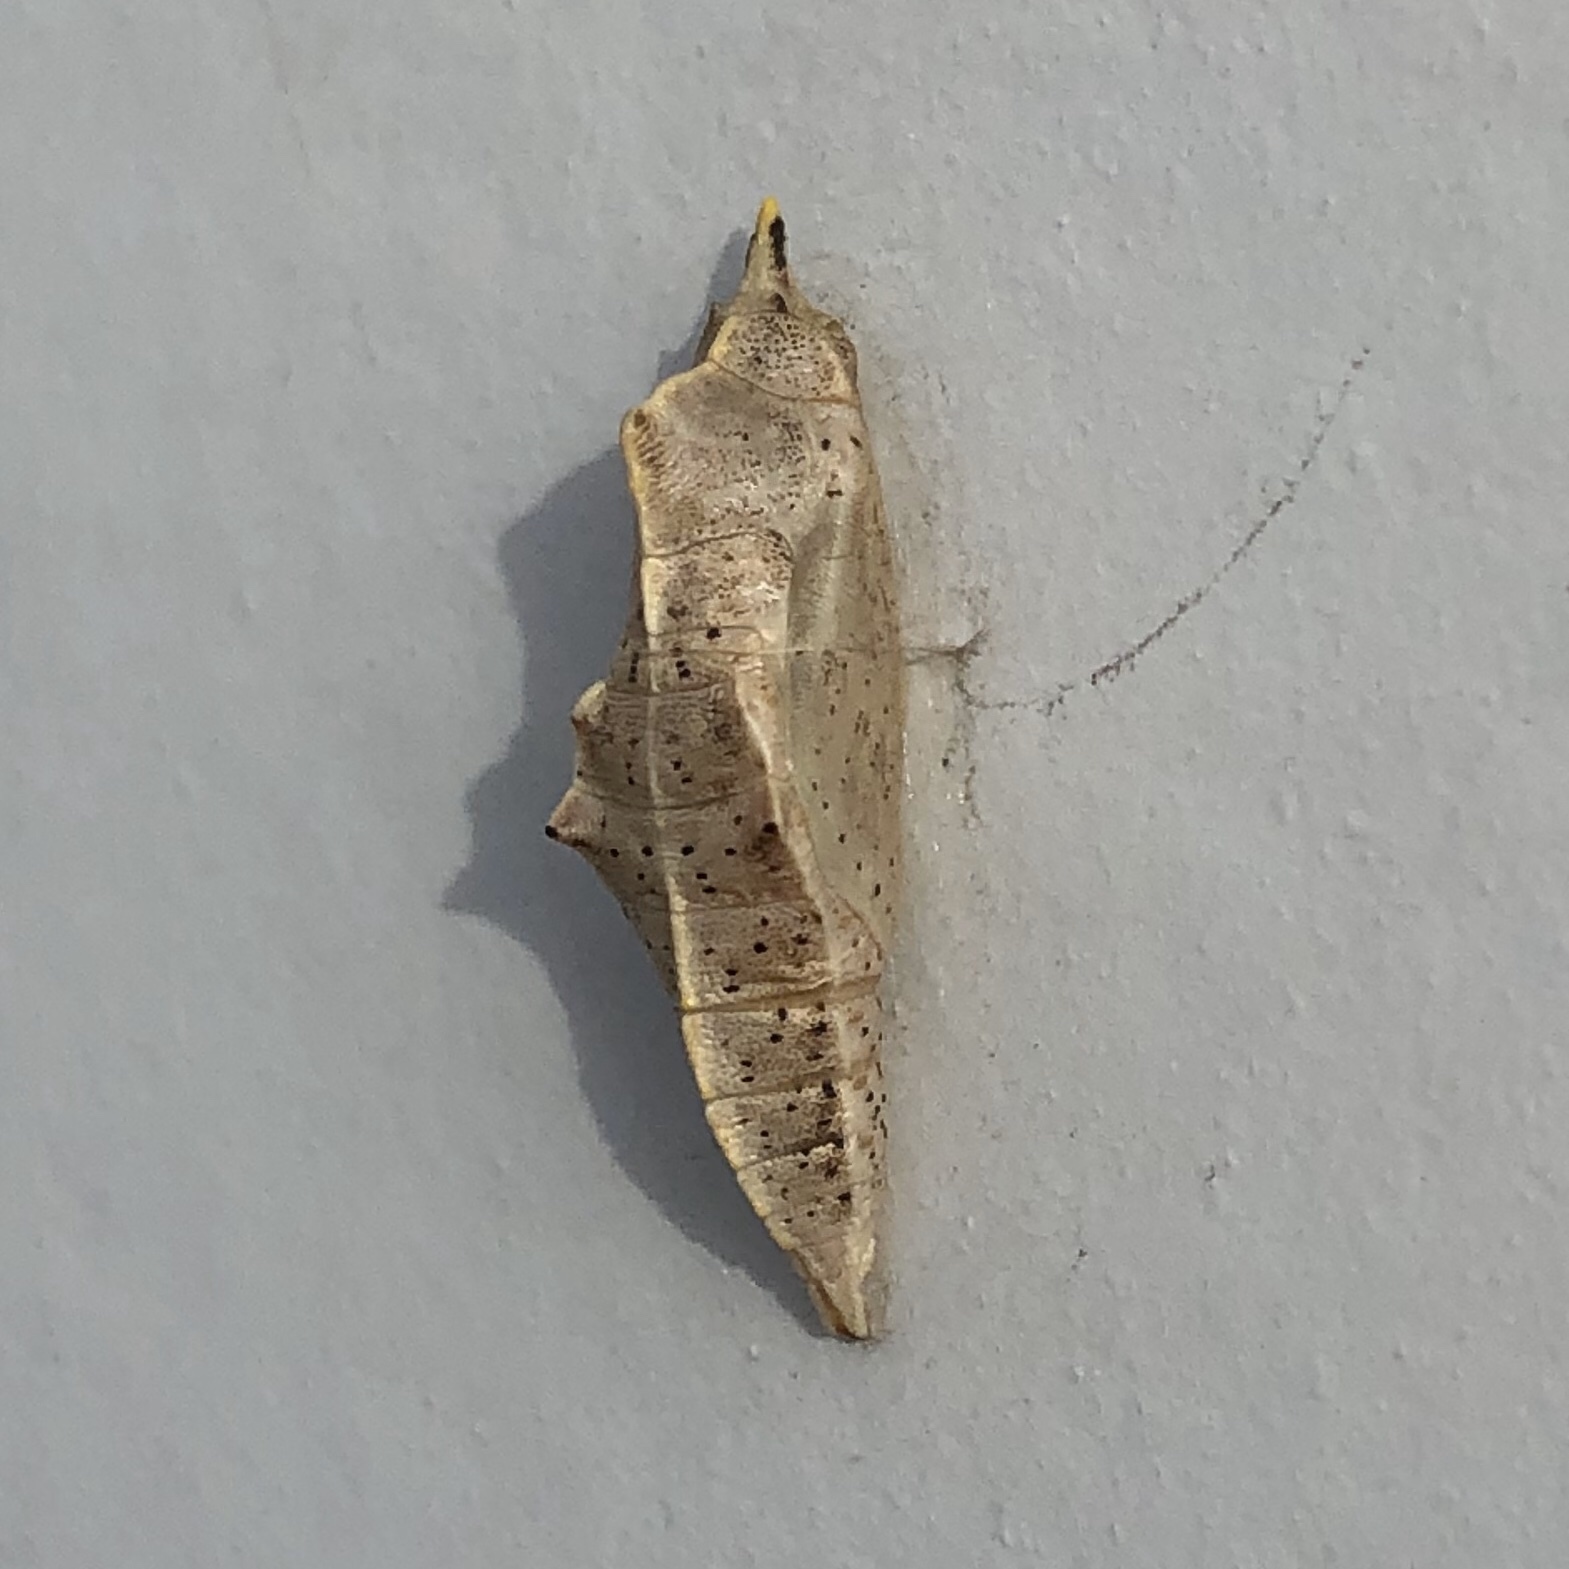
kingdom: Animalia
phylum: Arthropoda
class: Insecta
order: Lepidoptera
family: Pieridae
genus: Pieris
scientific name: Pieris rapae
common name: Small white
